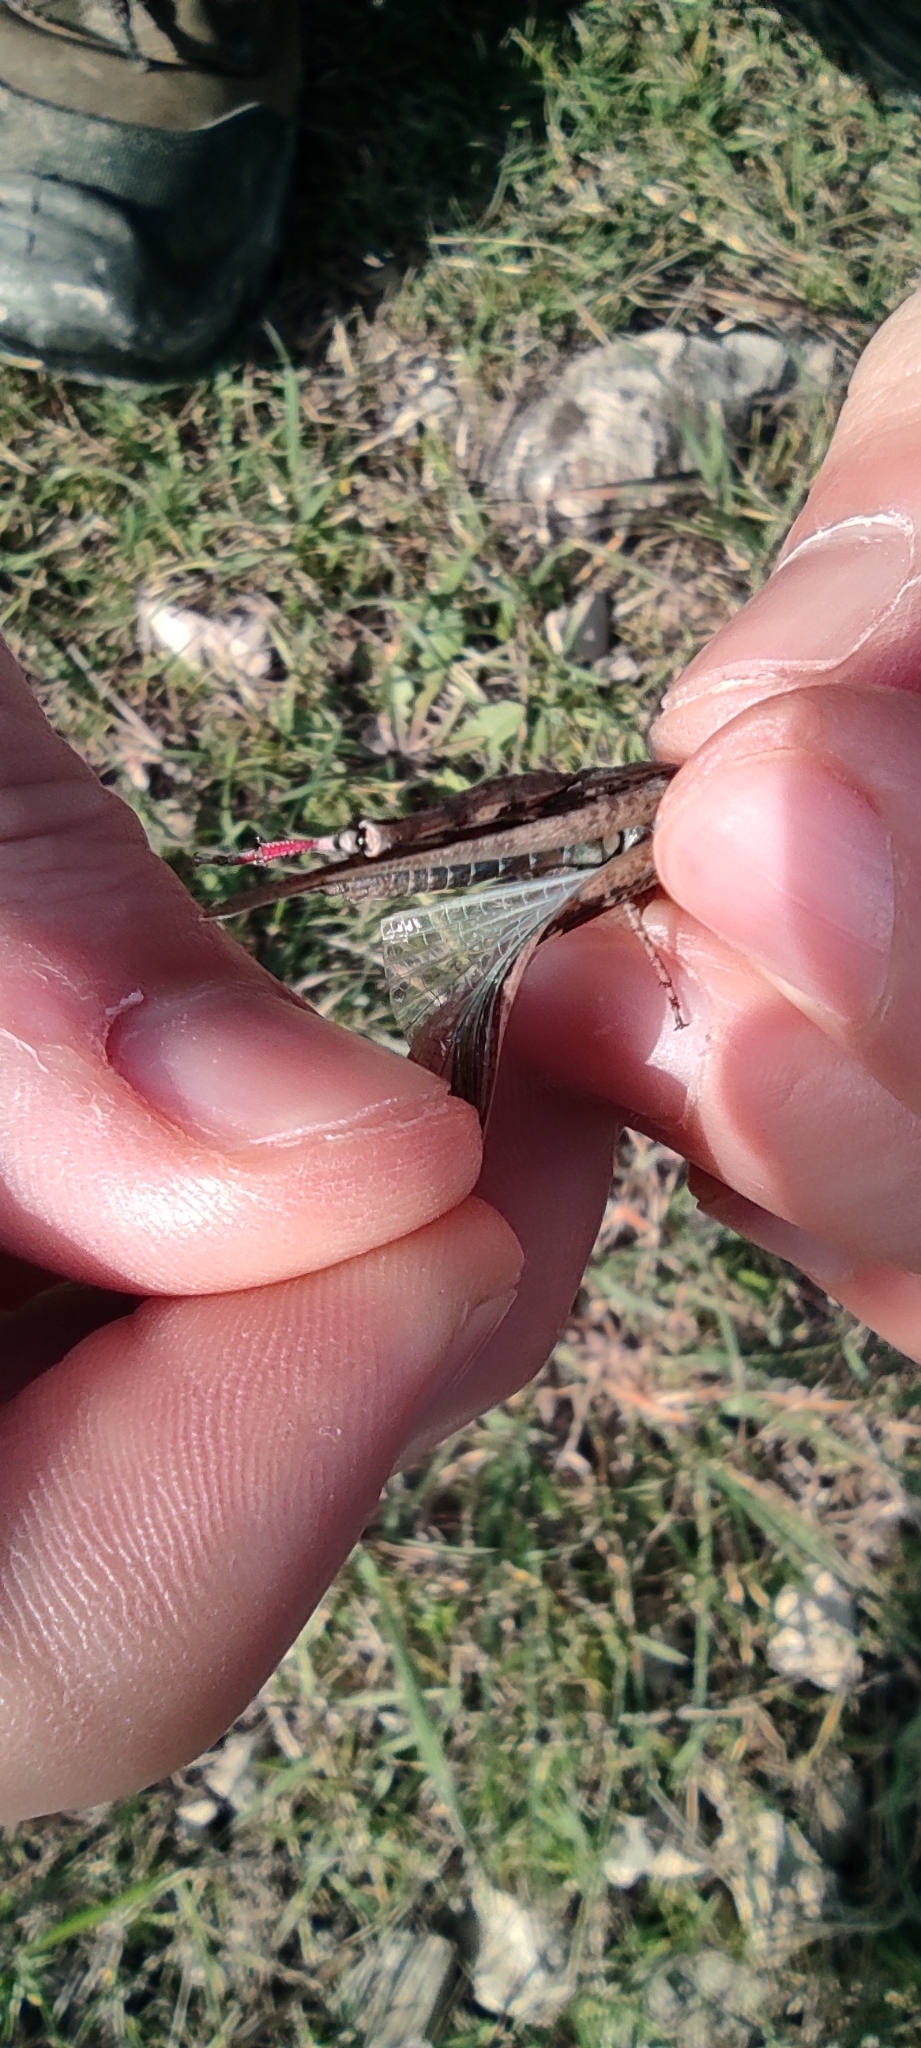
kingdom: Animalia
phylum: Arthropoda
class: Insecta
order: Orthoptera
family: Acrididae
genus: Aiolopus
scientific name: Aiolopus strepens
